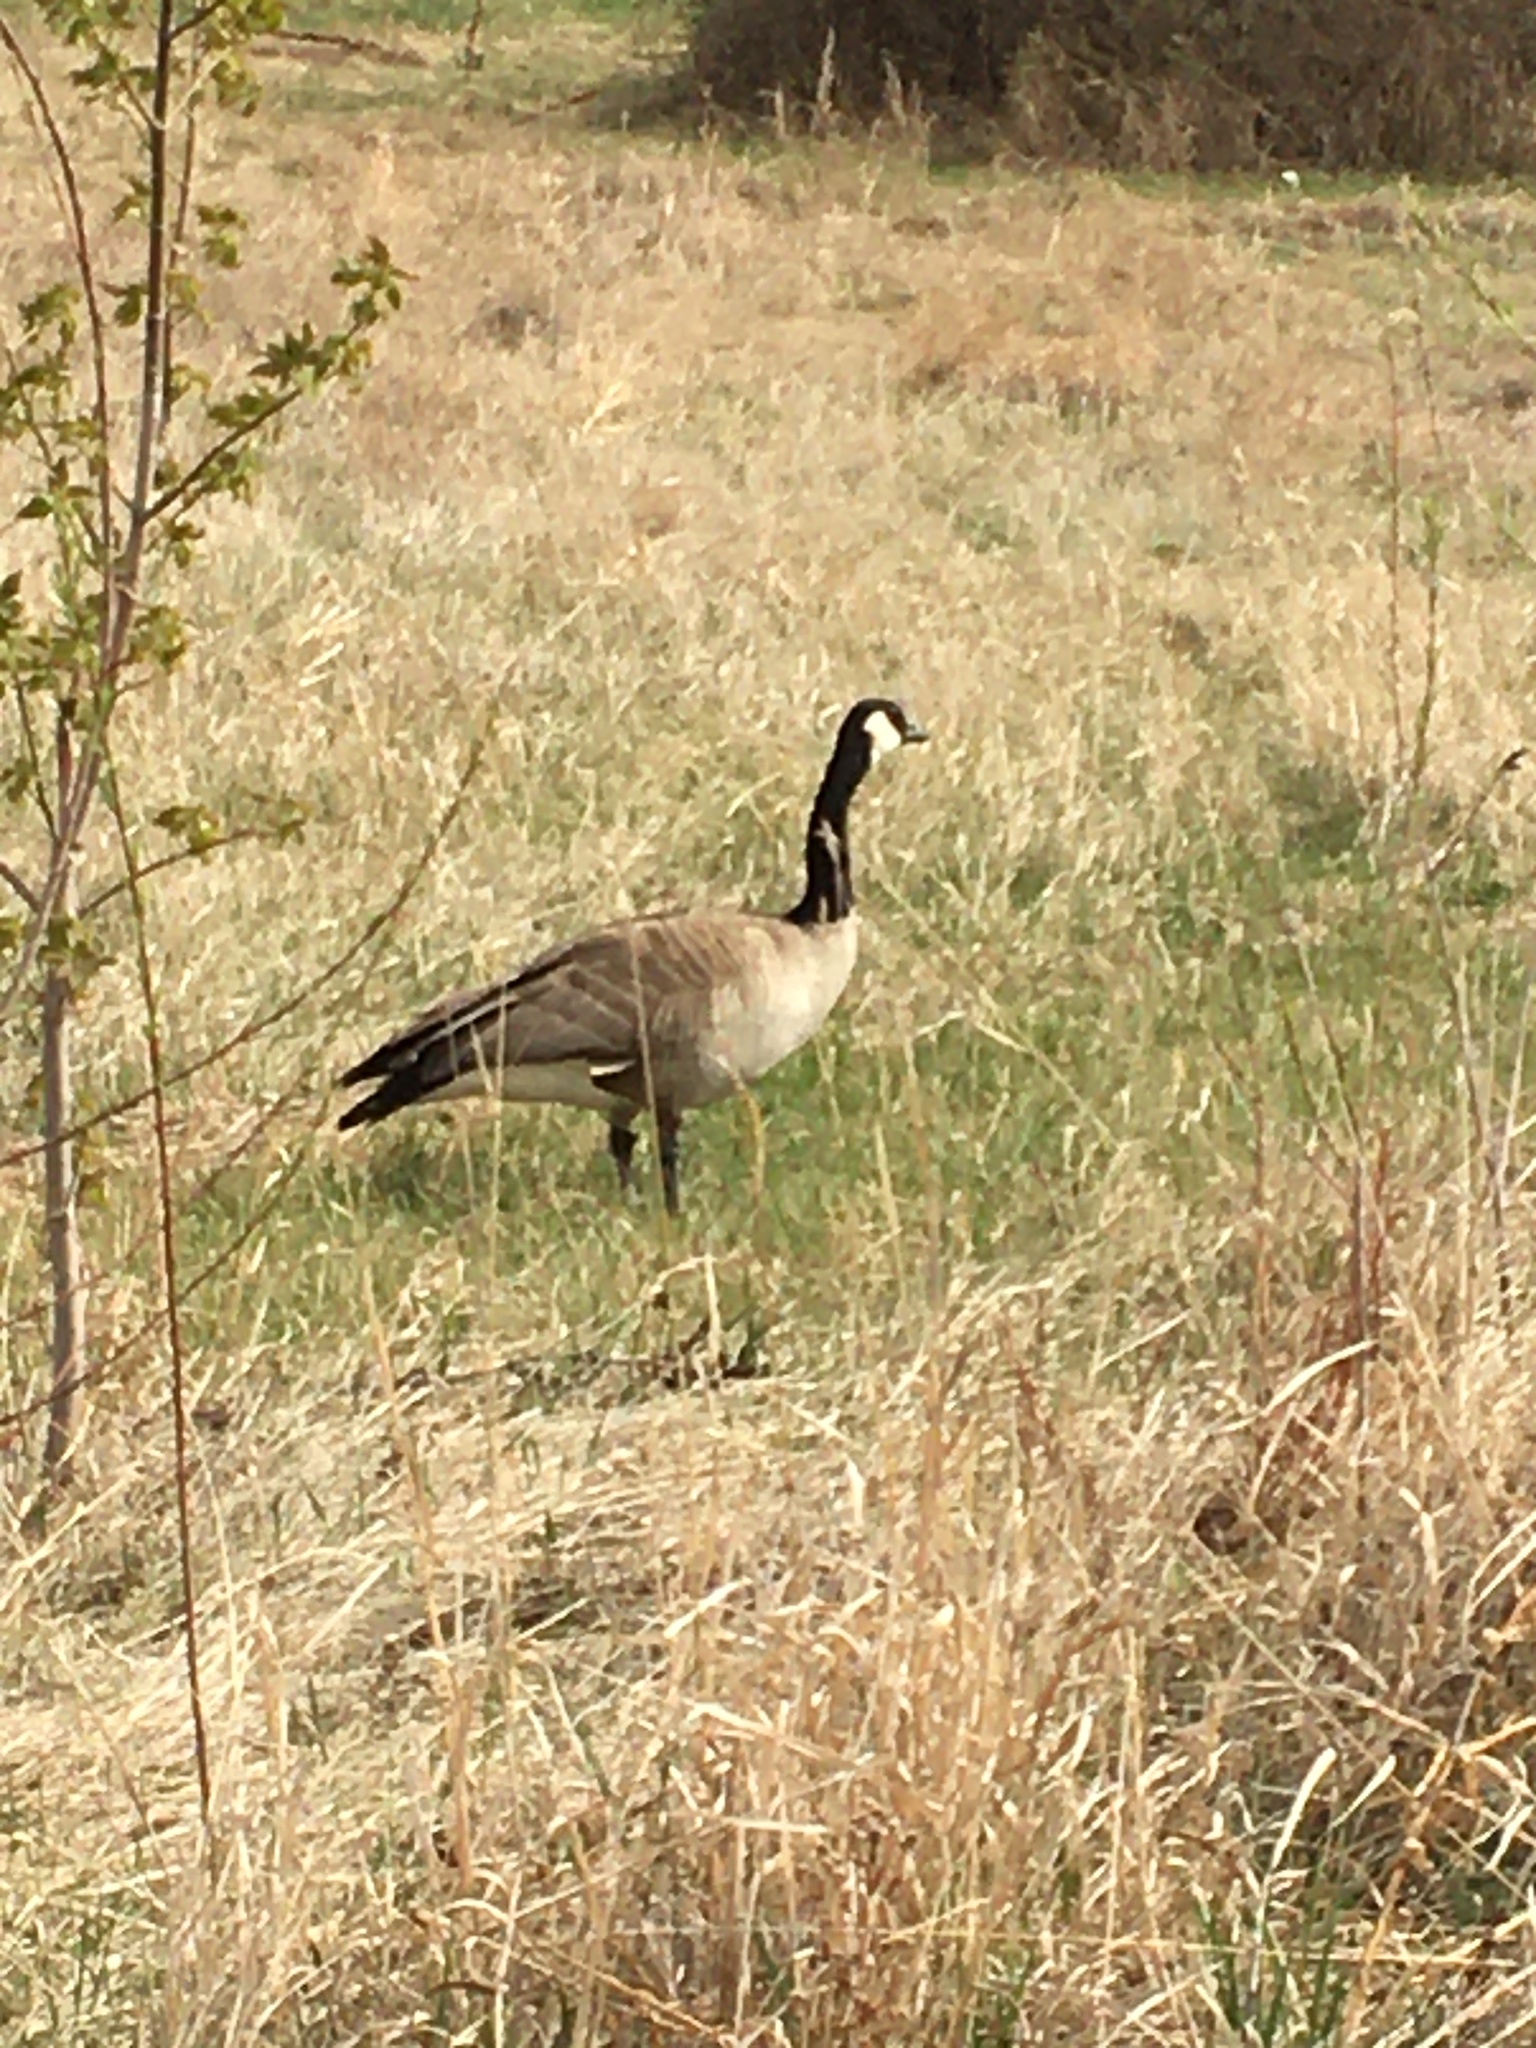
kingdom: Animalia
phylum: Chordata
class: Aves
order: Anseriformes
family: Anatidae
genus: Branta
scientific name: Branta canadensis
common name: Canada goose
